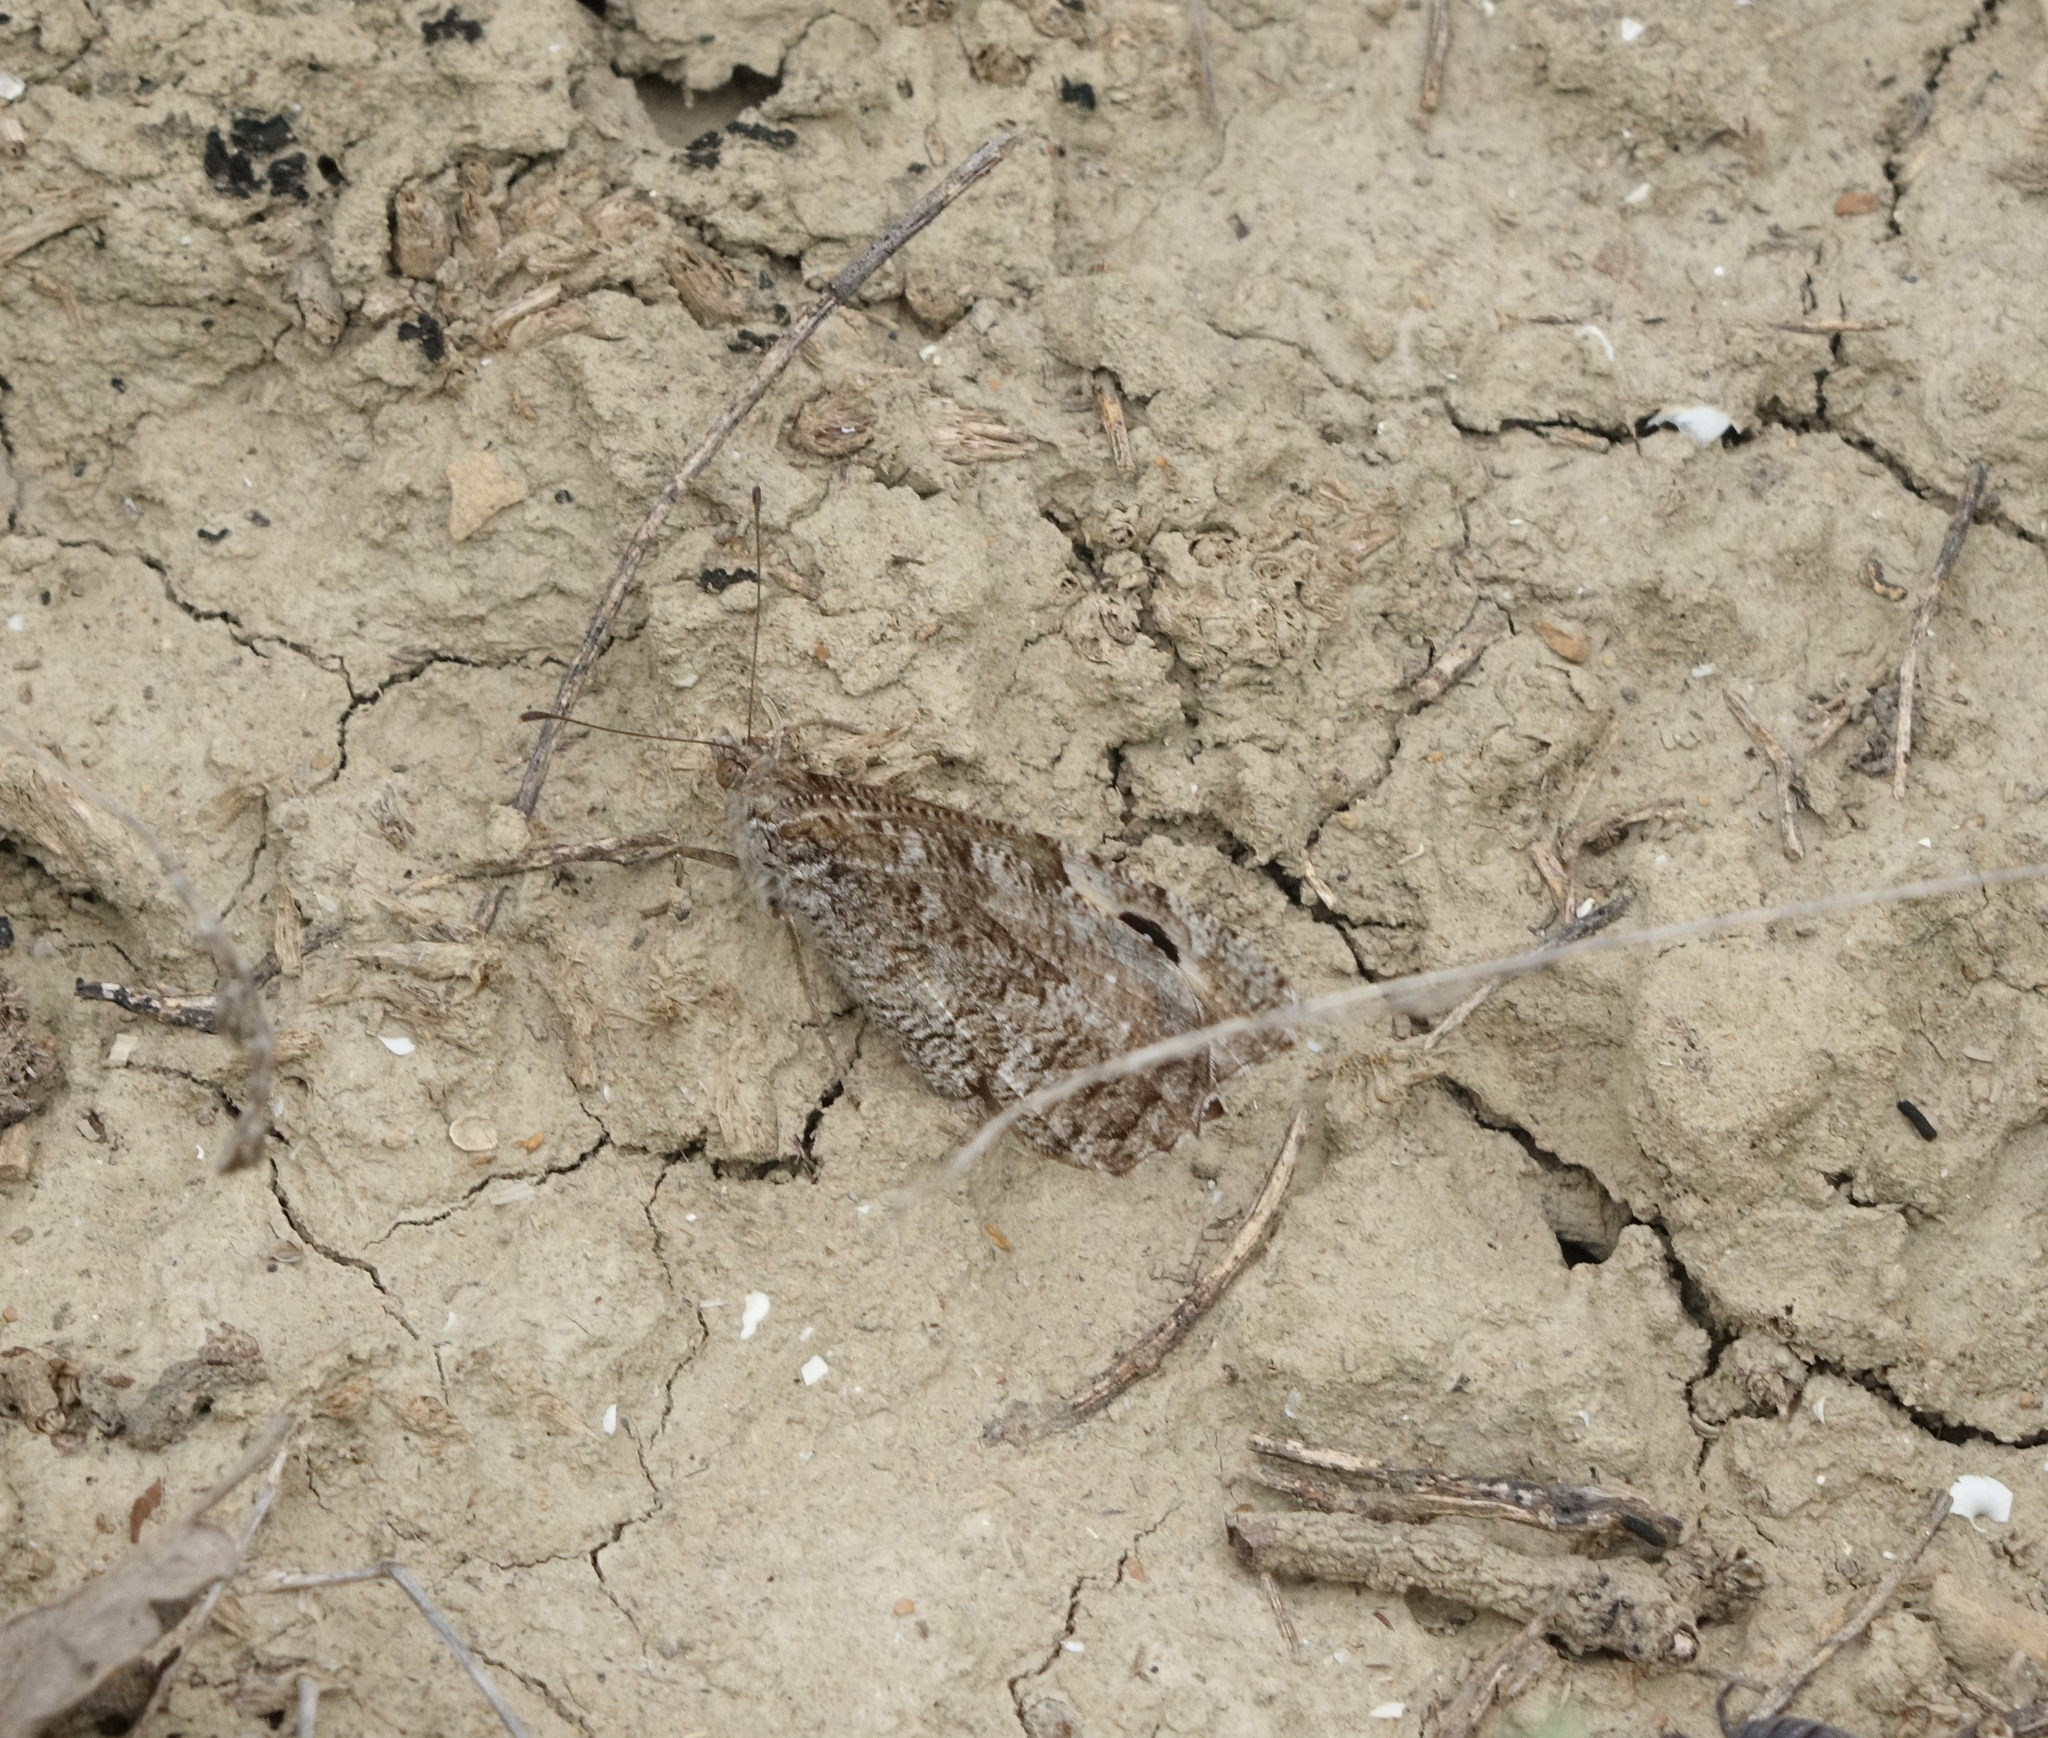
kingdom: Animalia
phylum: Arthropoda
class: Insecta
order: Lepidoptera
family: Nymphalidae
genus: Hipparchia
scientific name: Hipparchia pellucida
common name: Lesbos grayling
